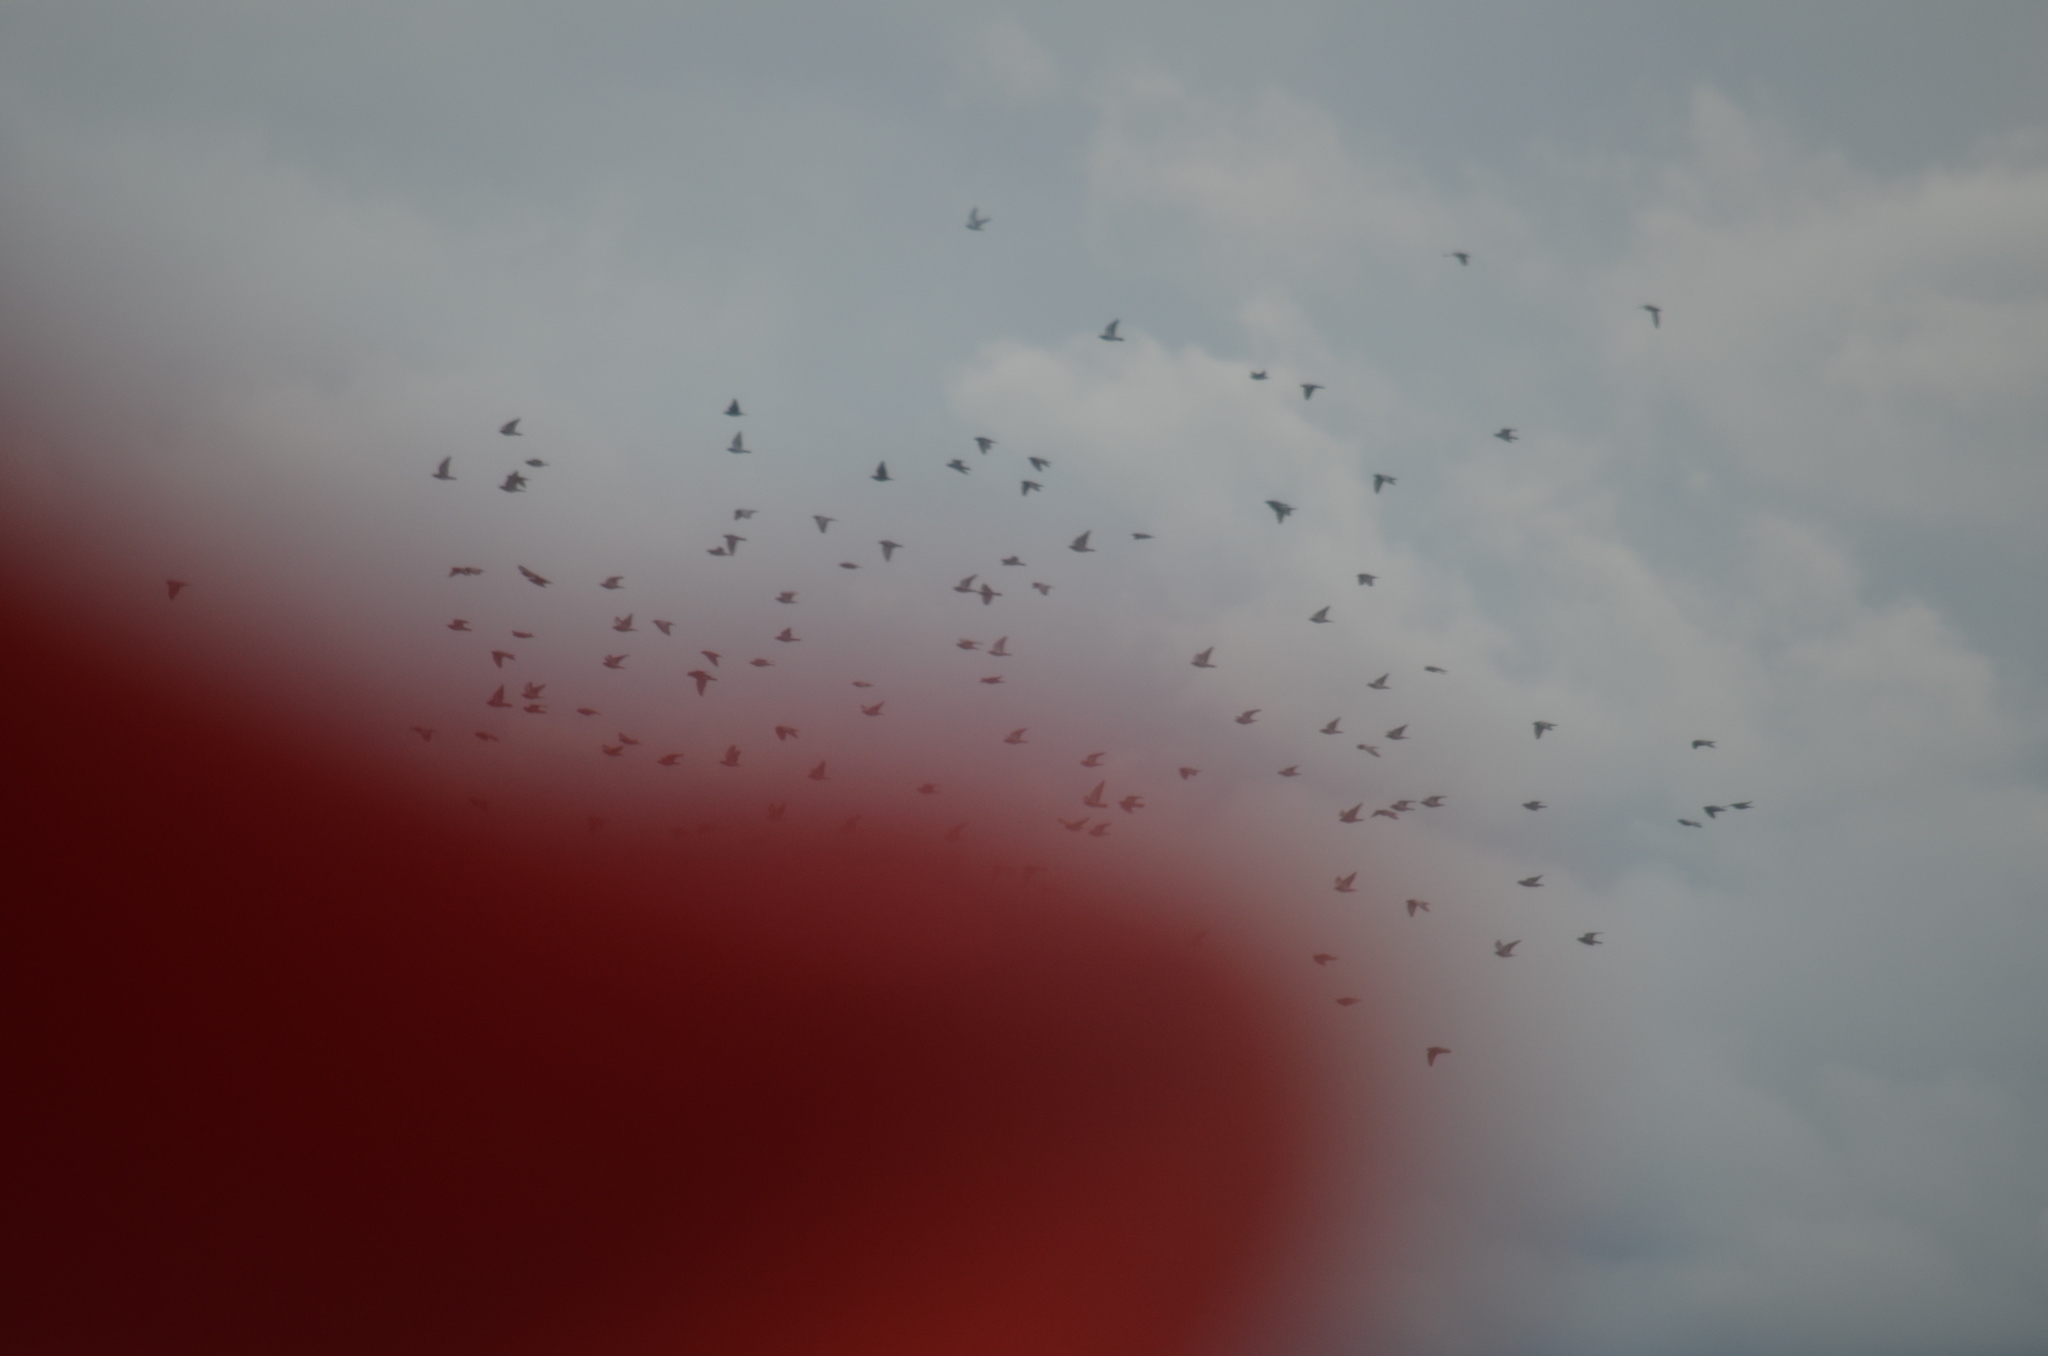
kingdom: Animalia
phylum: Chordata
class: Aves
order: Passeriformes
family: Sturnidae
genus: Sturnus
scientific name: Sturnus vulgaris
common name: Common starling
